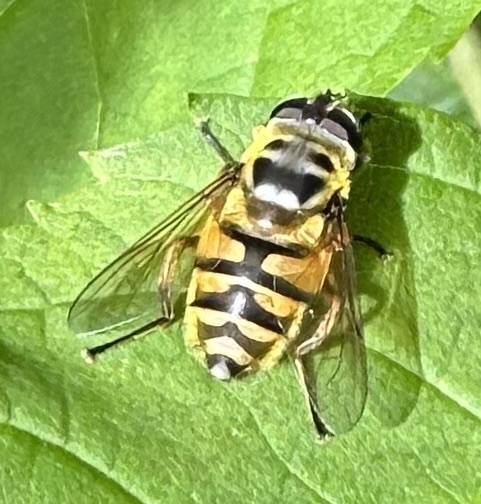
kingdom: Animalia
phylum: Arthropoda
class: Insecta
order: Diptera
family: Syrphidae
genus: Myathropa
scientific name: Myathropa florea
